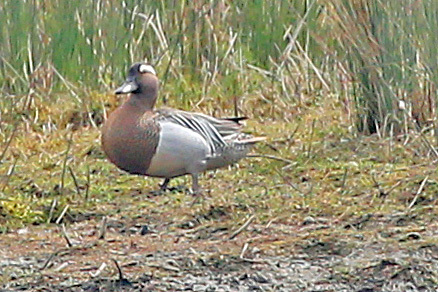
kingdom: Animalia
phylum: Chordata
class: Aves
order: Anseriformes
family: Anatidae
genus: Spatula
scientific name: Spatula querquedula
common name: Garganey
